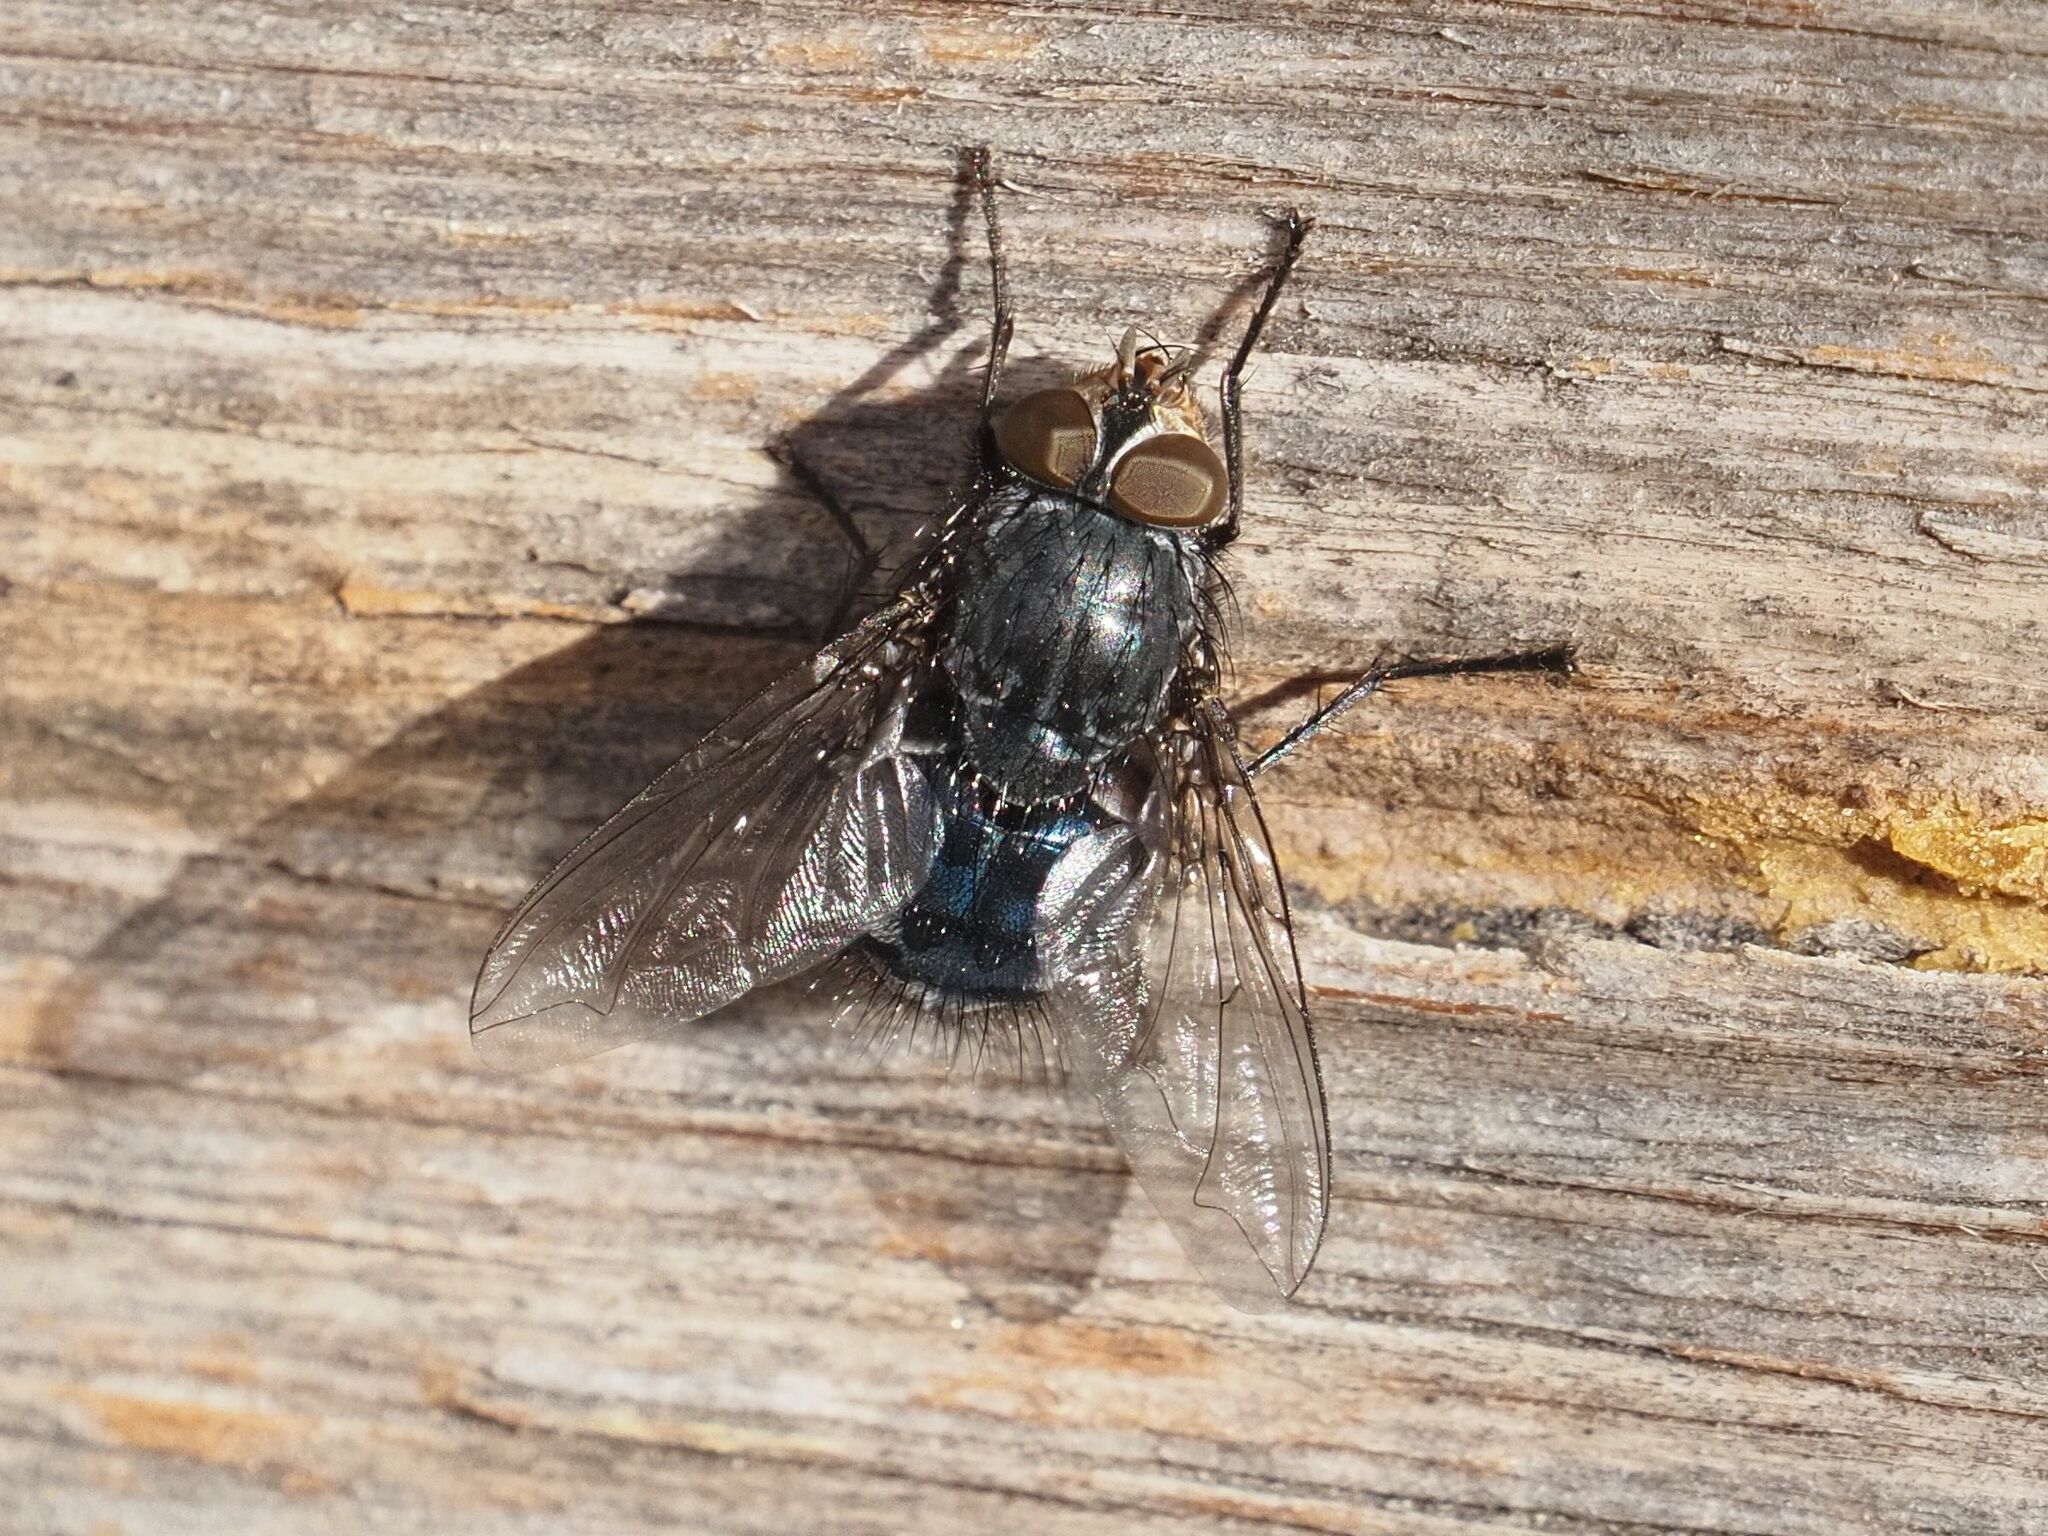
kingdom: Animalia
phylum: Arthropoda
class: Insecta
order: Diptera
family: Calliphoridae
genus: Calliphora
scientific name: Calliphora vicina
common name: Common blow flie
